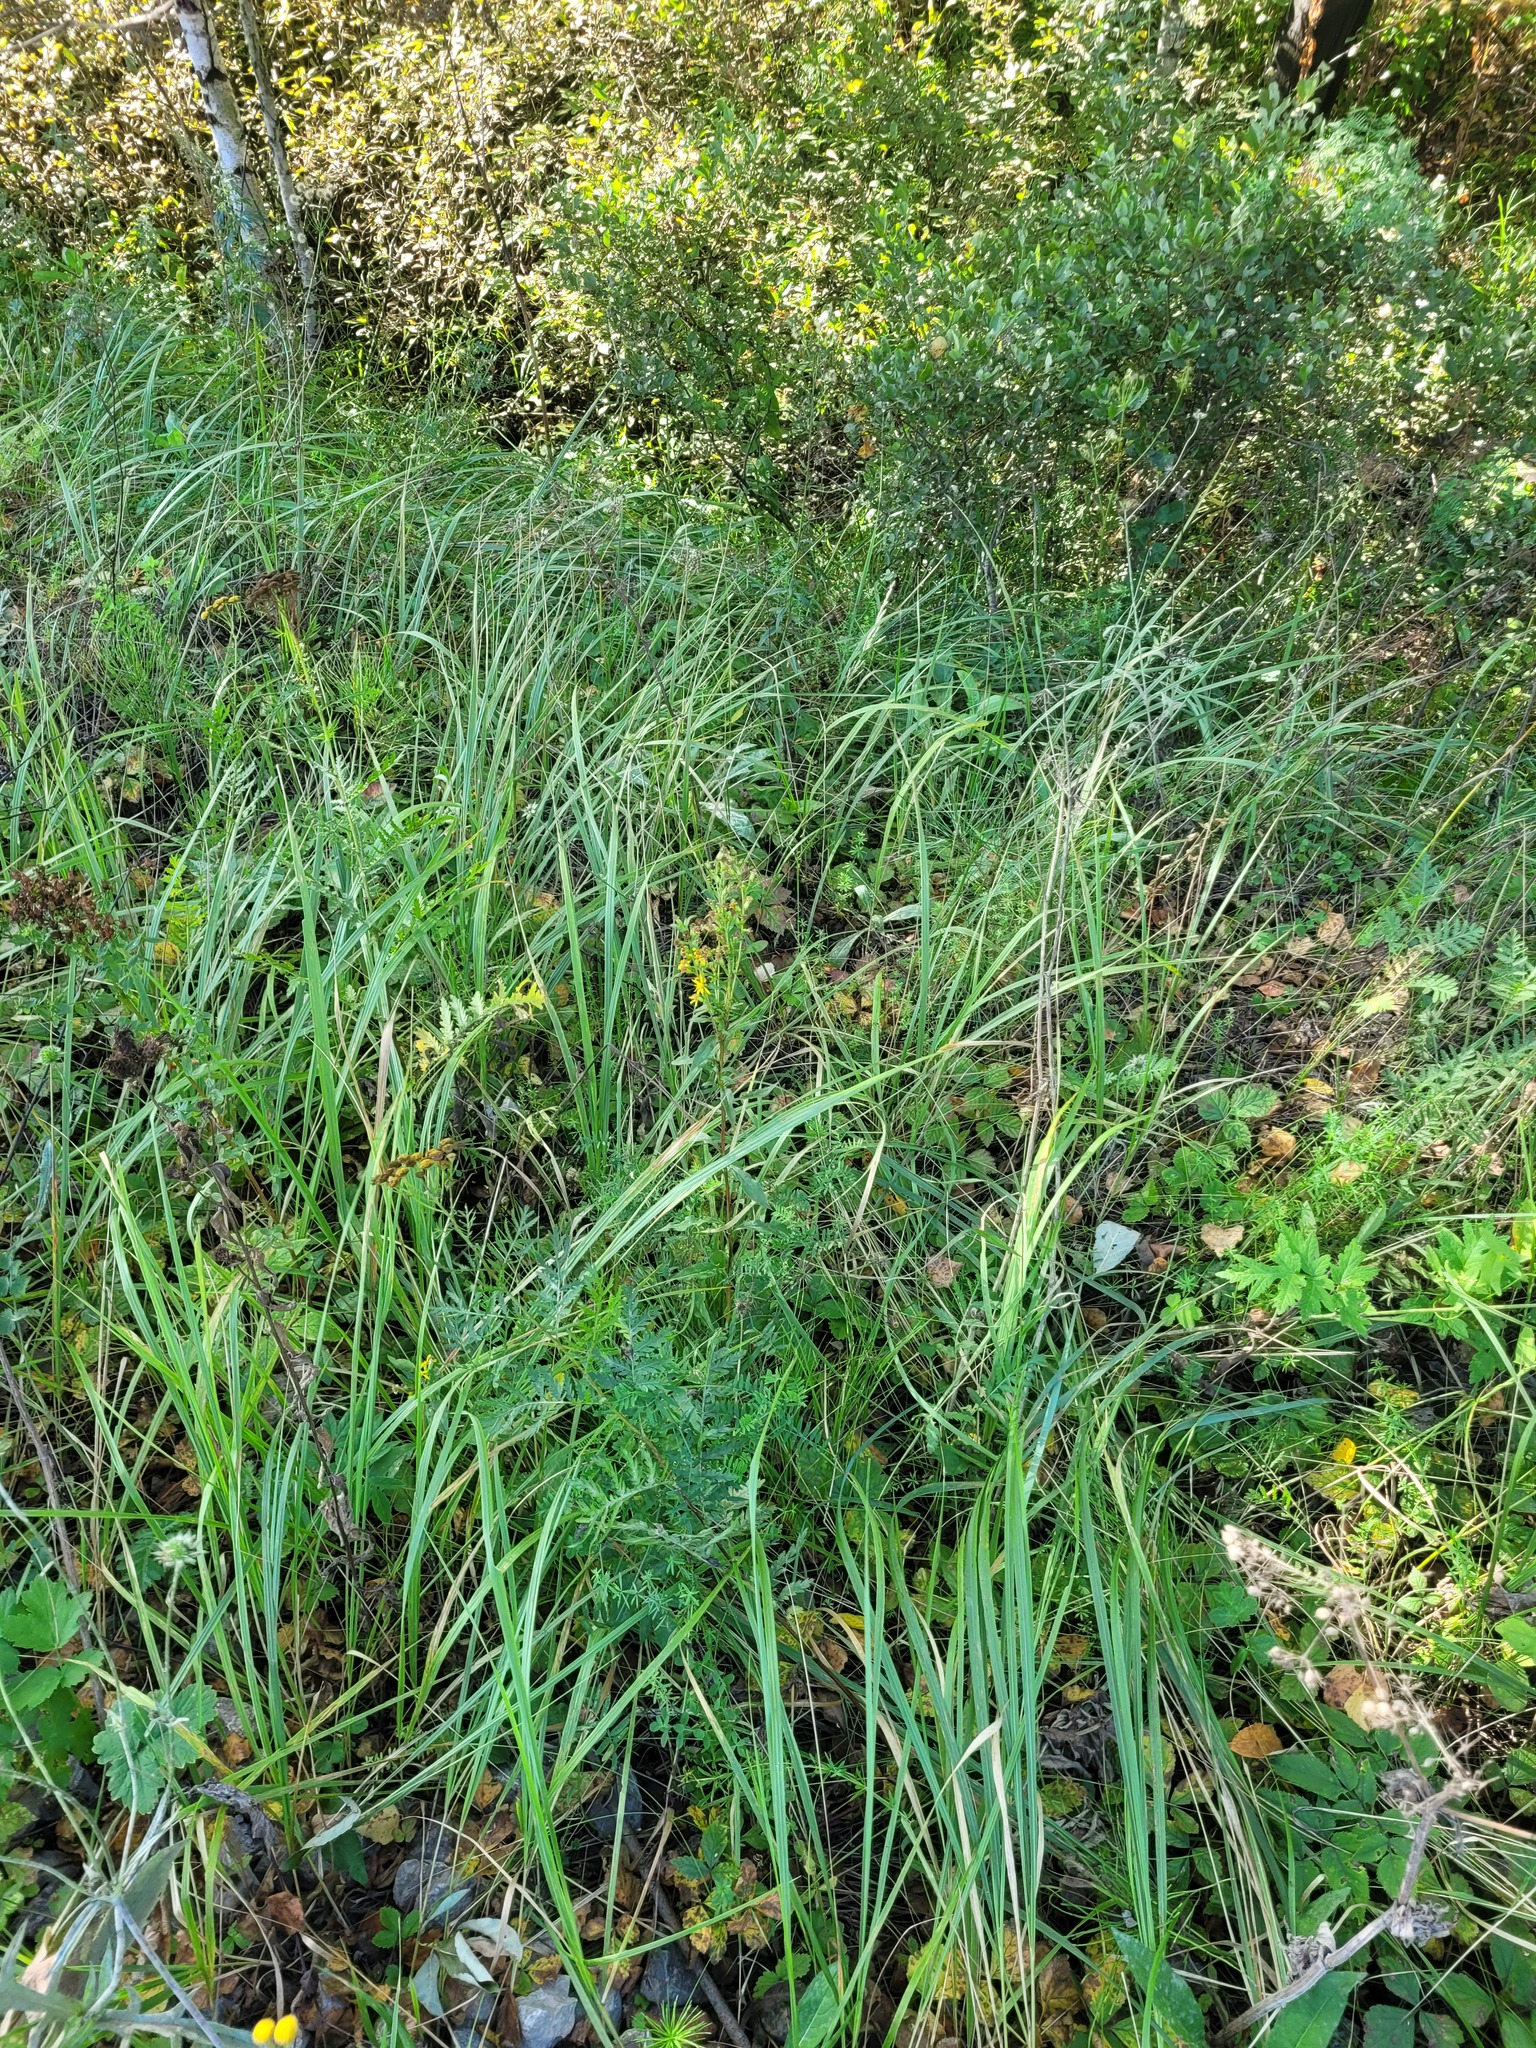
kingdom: Plantae
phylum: Tracheophyta
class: Magnoliopsida
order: Asterales
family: Asteraceae
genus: Solidago
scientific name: Solidago virgaurea
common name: Goldenrod
